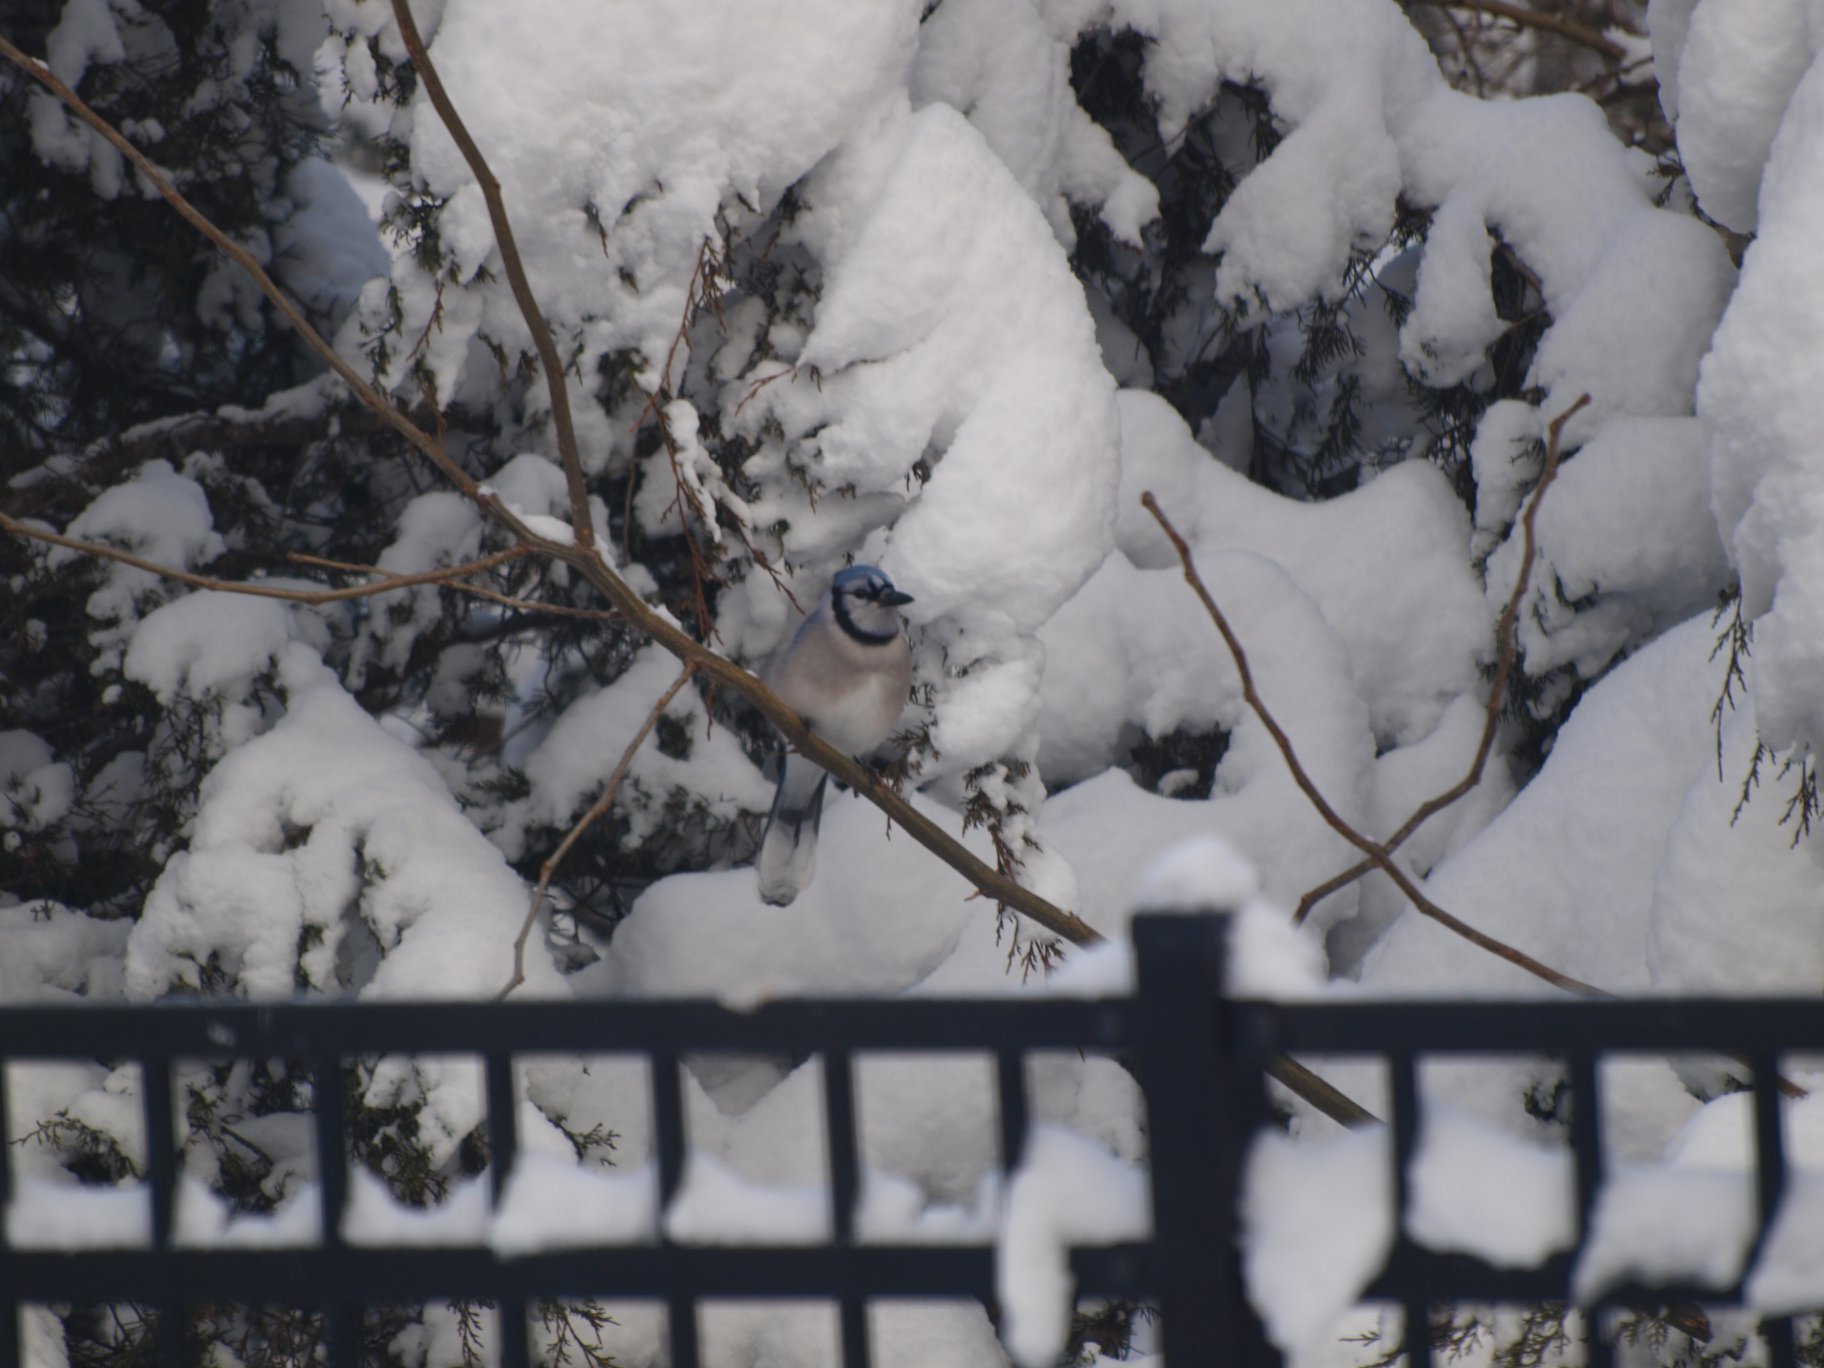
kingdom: Animalia
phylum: Chordata
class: Aves
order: Passeriformes
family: Corvidae
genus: Cyanocitta
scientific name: Cyanocitta cristata
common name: Blue jay
